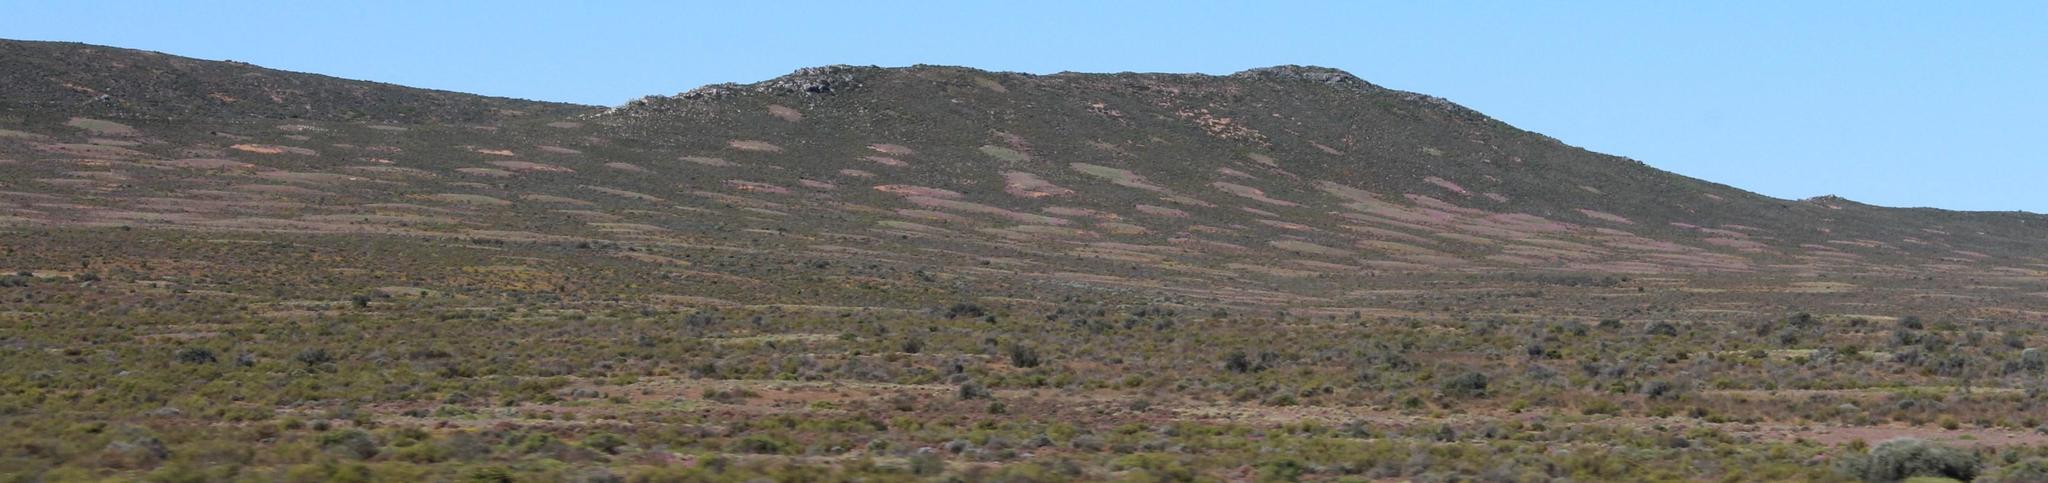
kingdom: Animalia
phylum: Arthropoda
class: Insecta
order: Blattodea
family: Hodotermitidae
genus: Microhodotermes
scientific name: Microhodotermes viator
